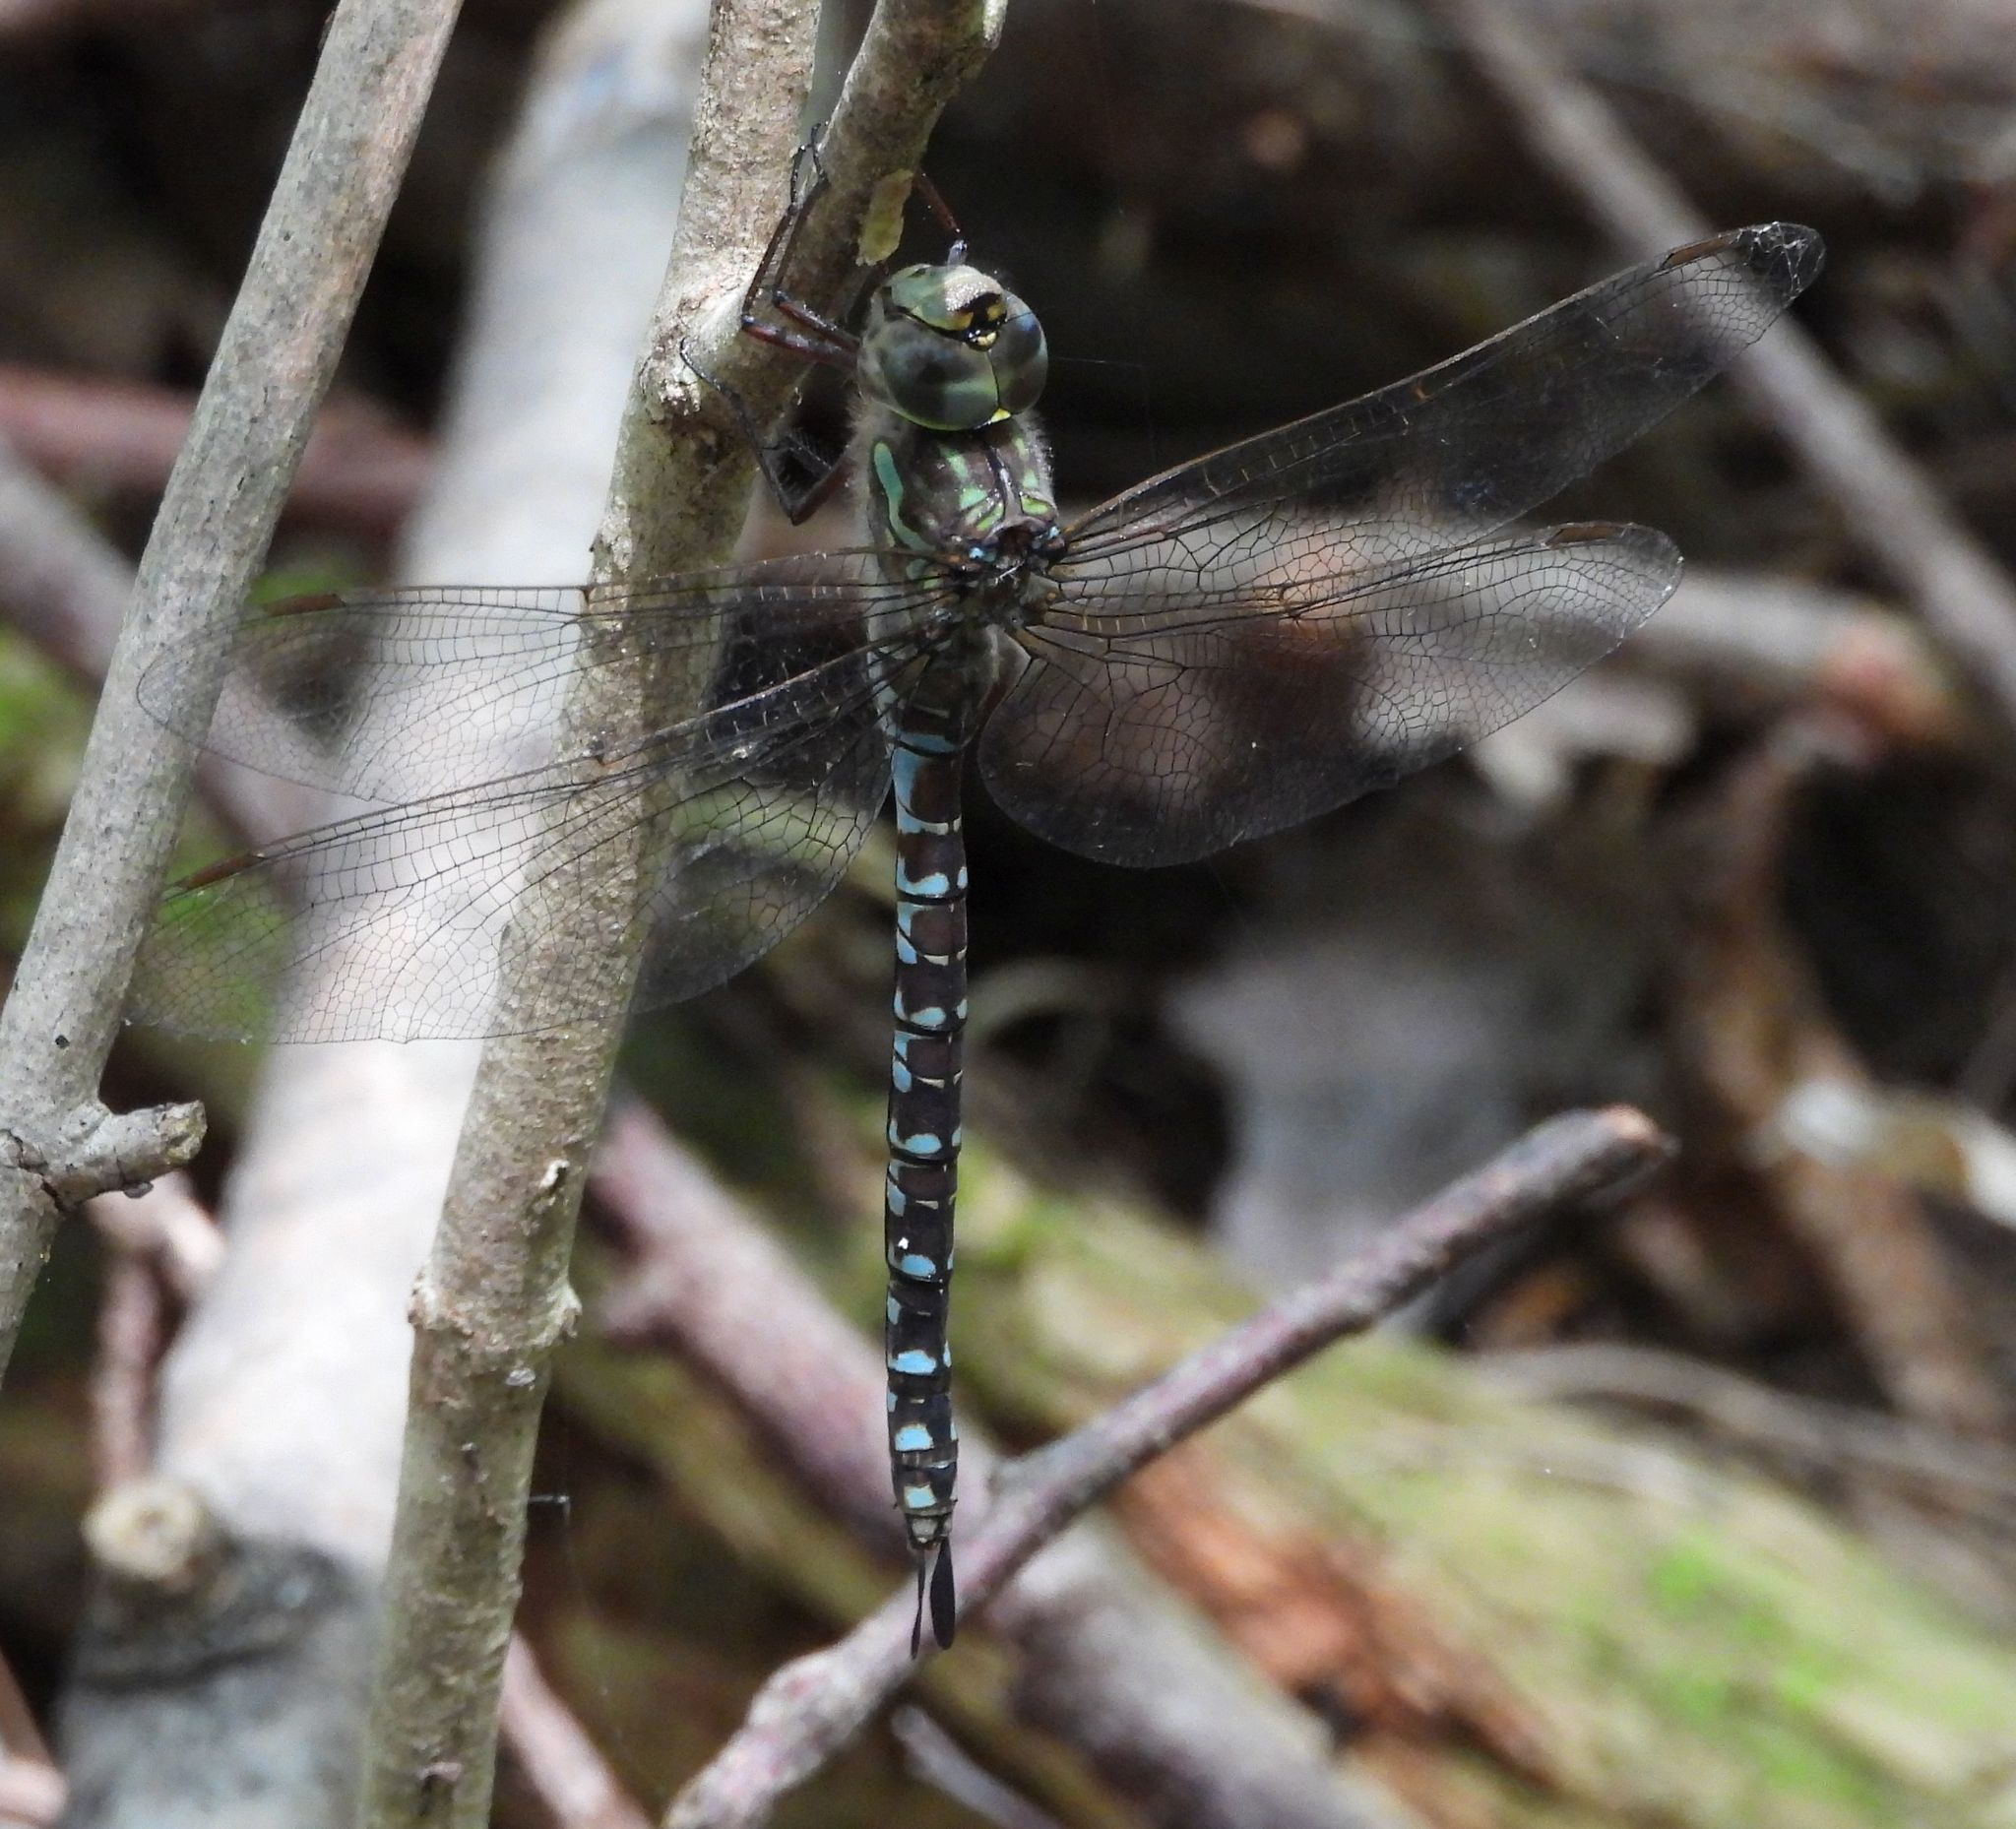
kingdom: Animalia
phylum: Arthropoda
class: Insecta
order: Odonata
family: Aeshnidae
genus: Aeshna
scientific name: Aeshna canadensis
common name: Canada darner
